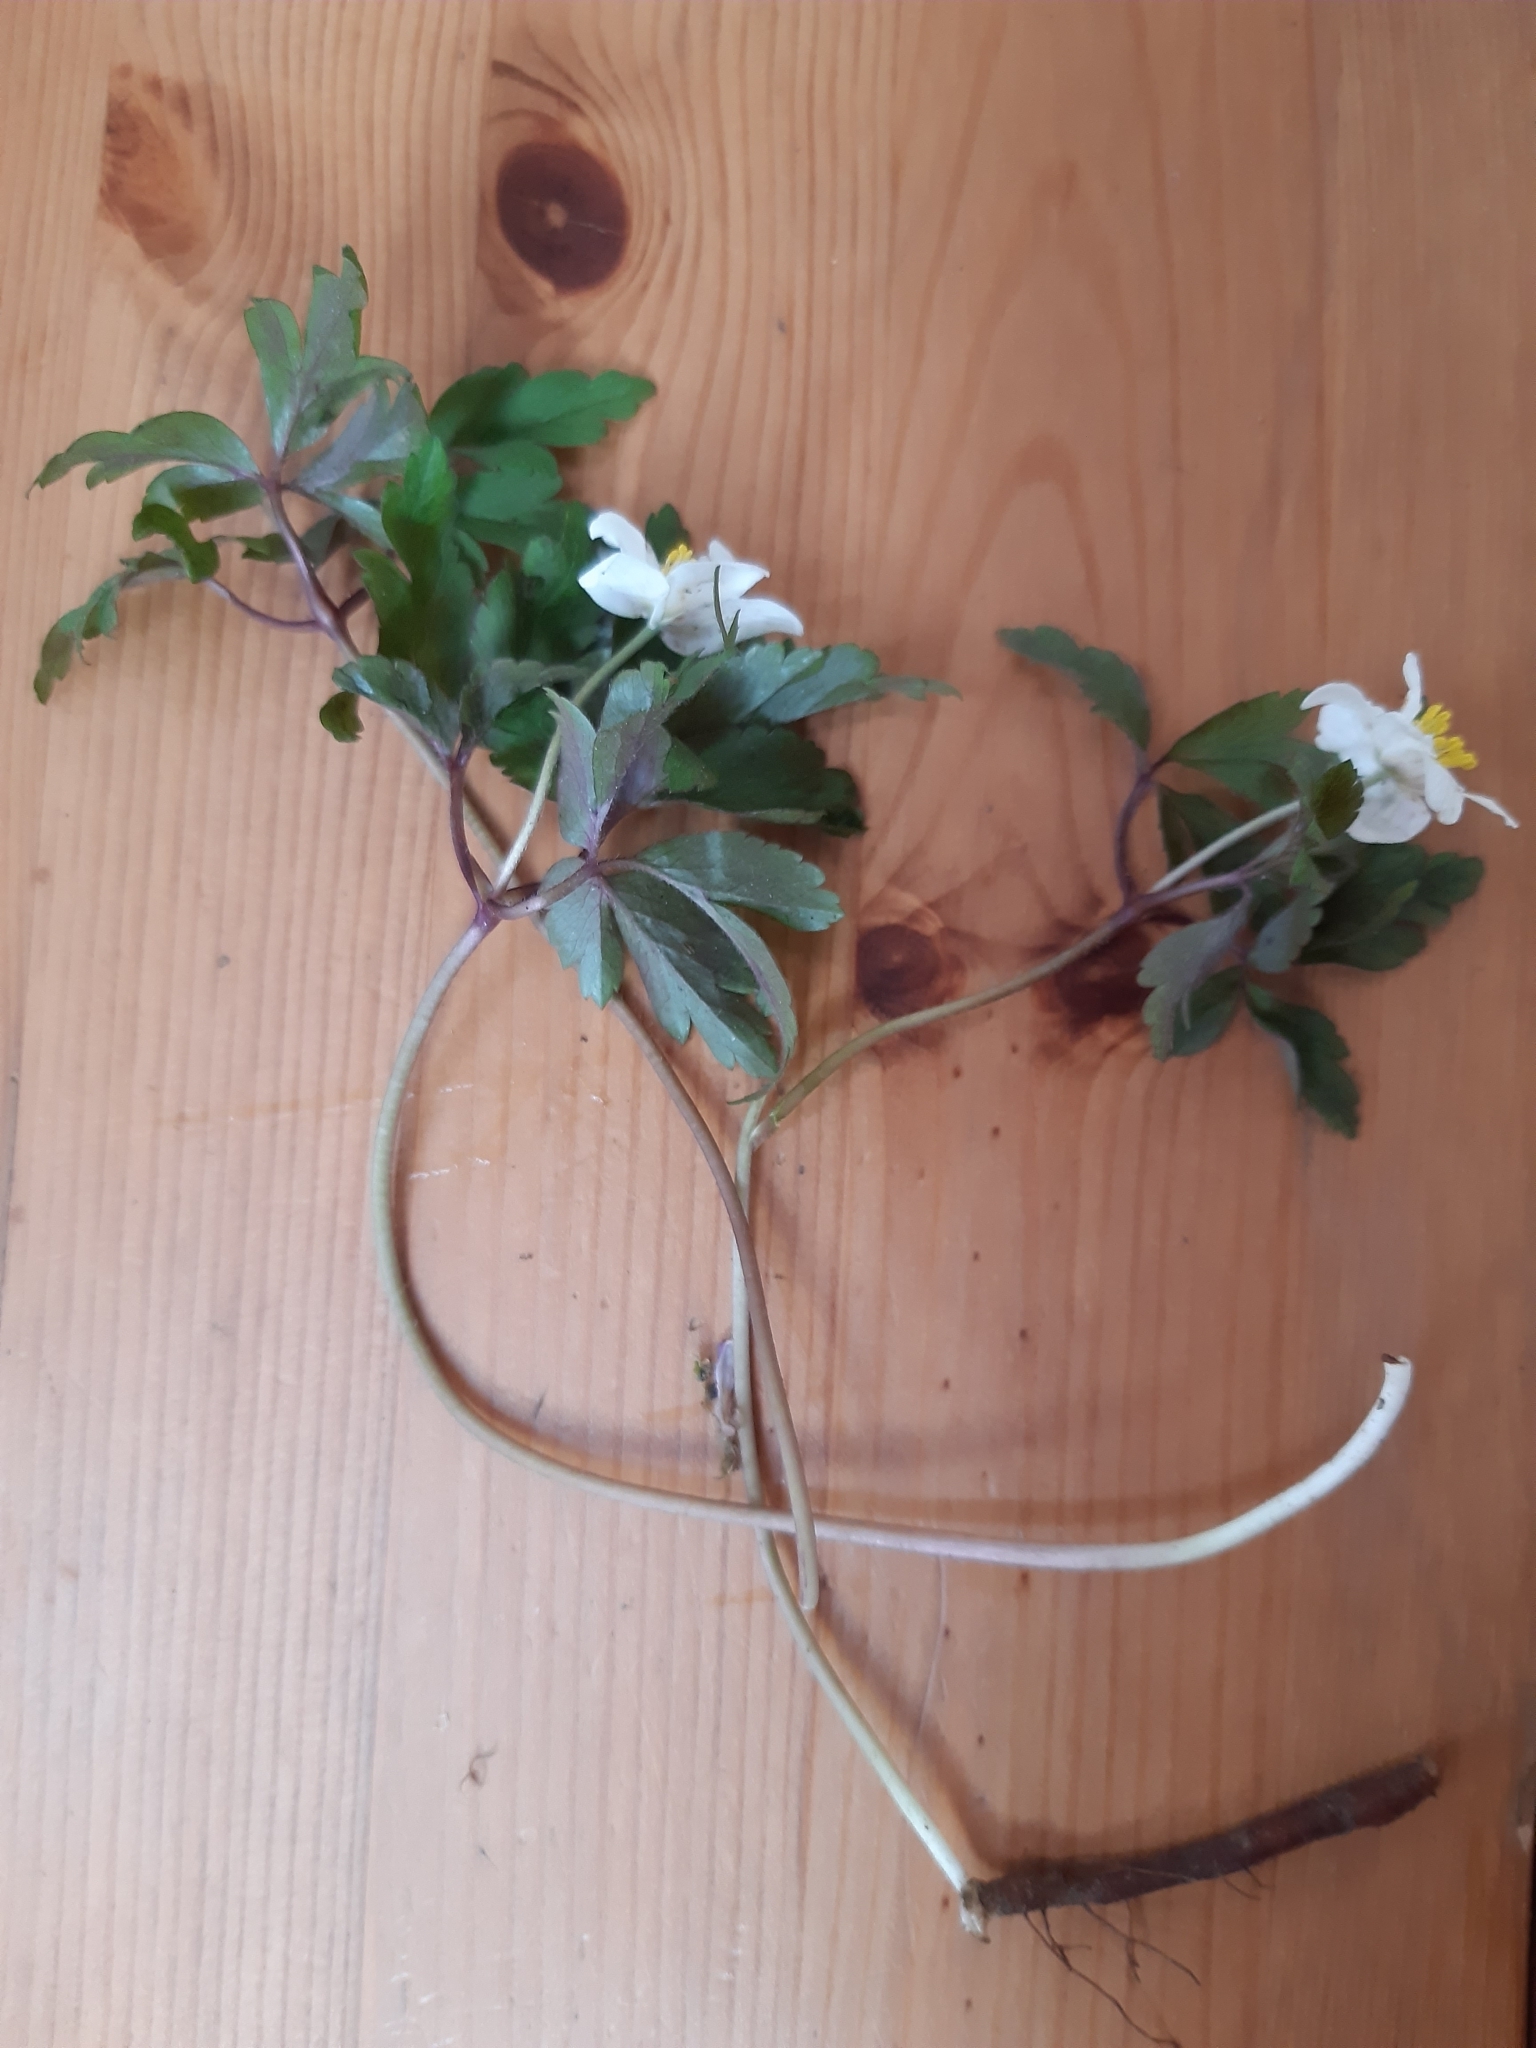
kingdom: Plantae
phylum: Tracheophyta
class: Magnoliopsida
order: Ranunculales
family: Ranunculaceae
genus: Anemone
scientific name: Anemone nemorosa
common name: Wood anemone
